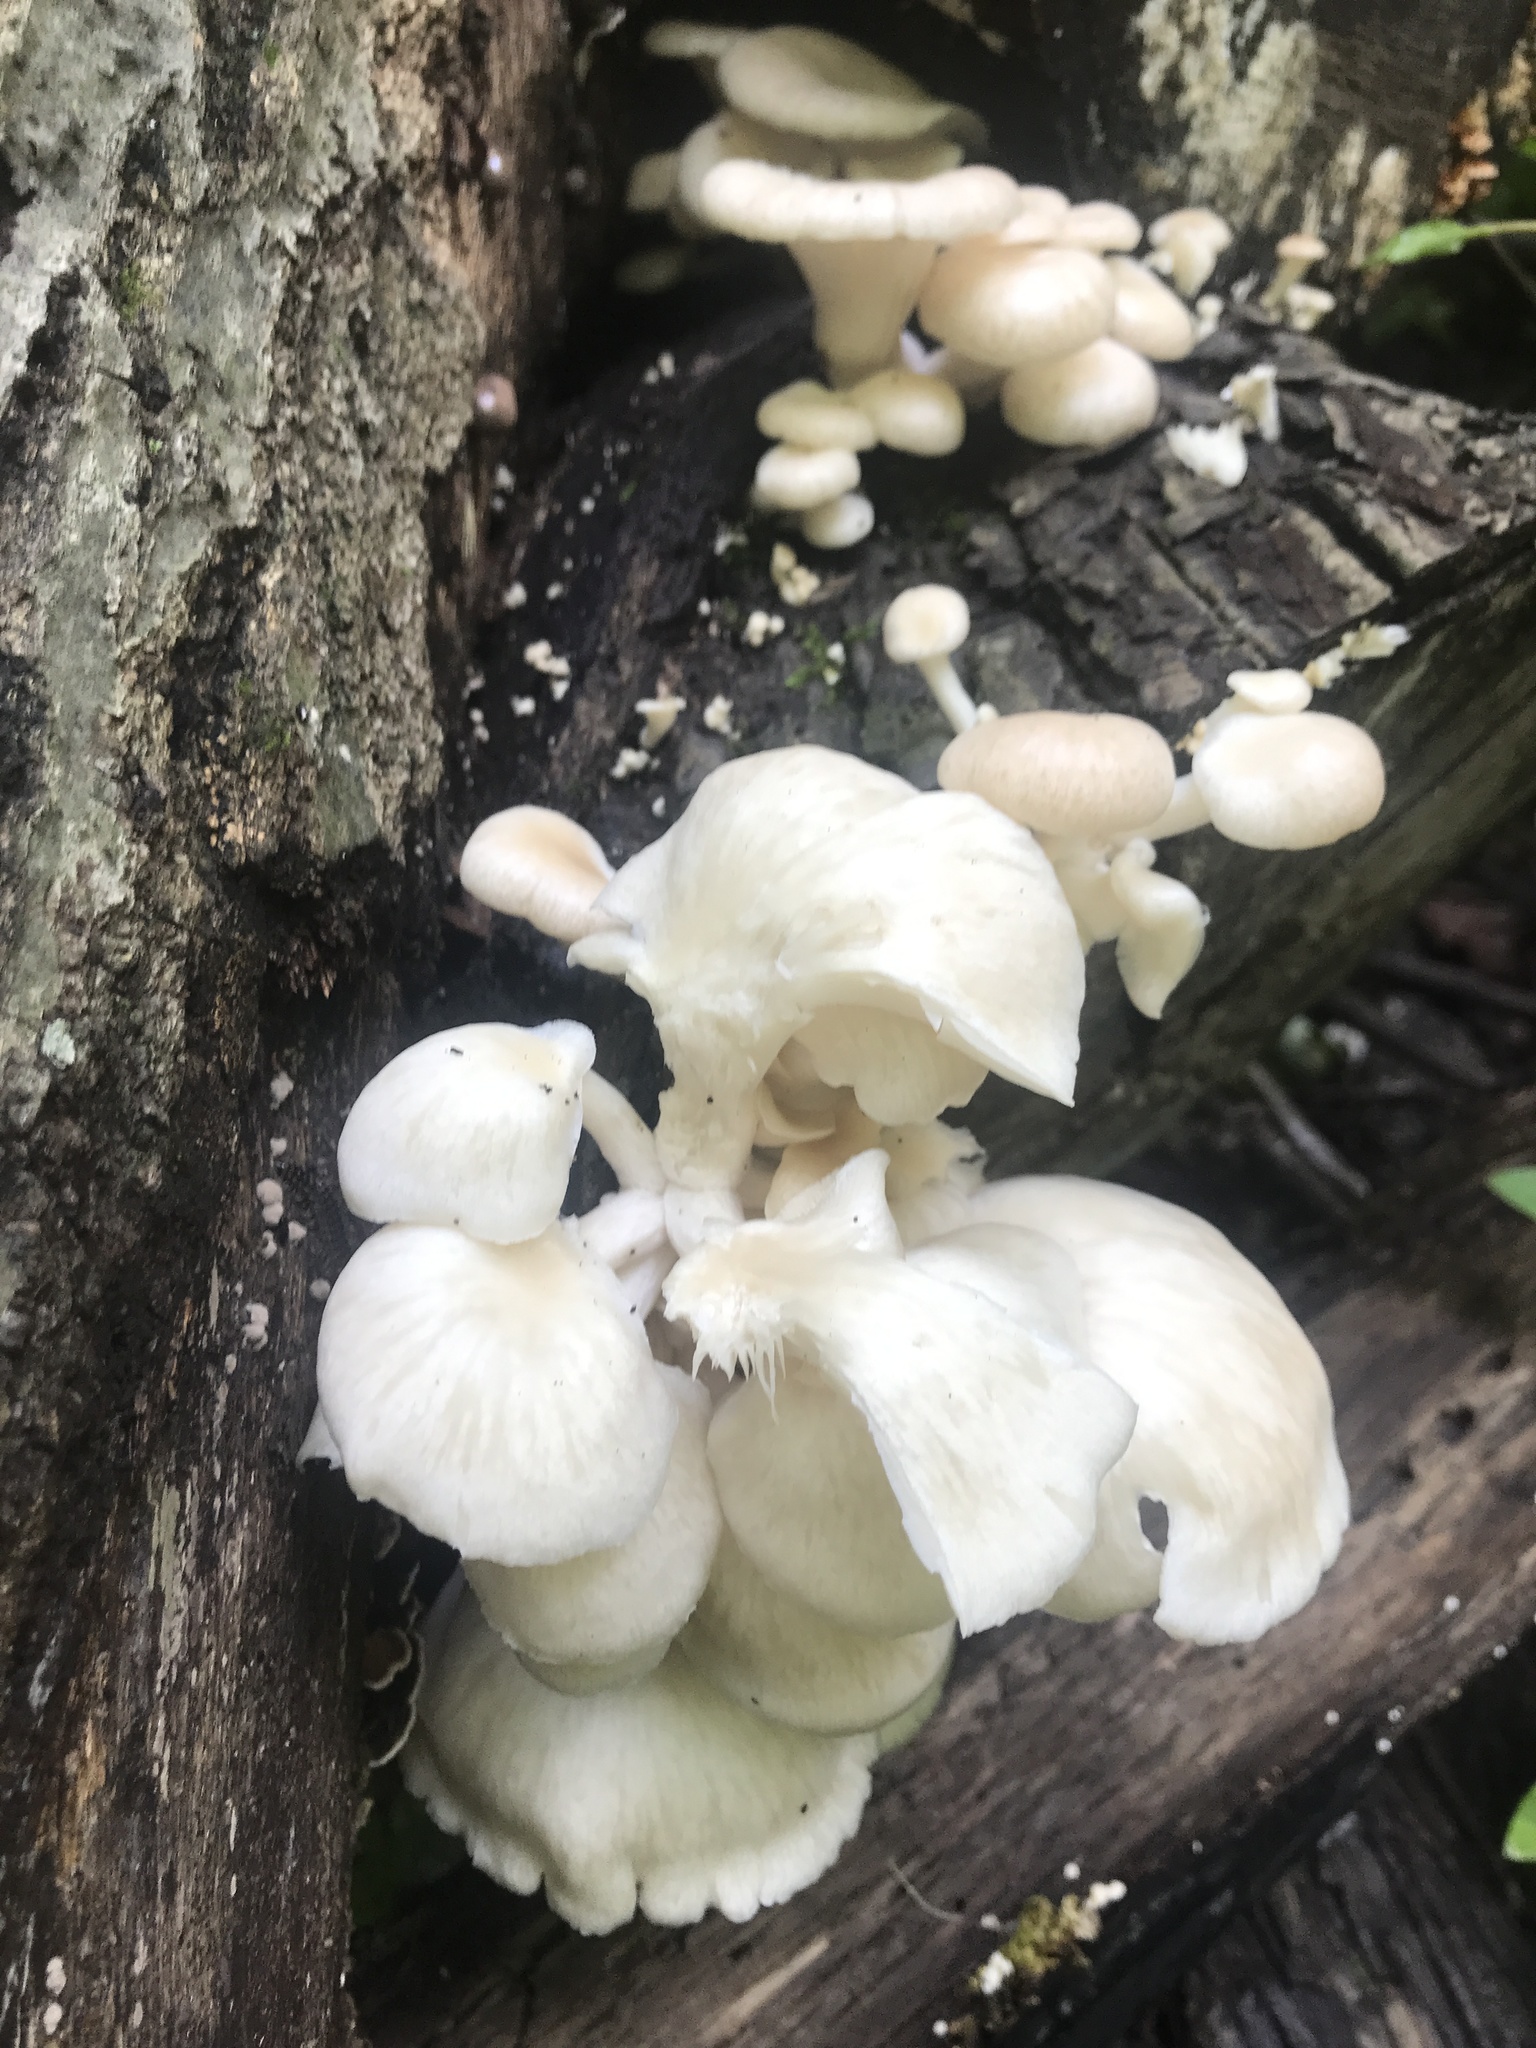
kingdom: Fungi
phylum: Basidiomycota
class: Agaricomycetes
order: Agaricales
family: Pleurotaceae
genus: Pleurotus
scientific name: Pleurotus pulmonarius
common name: Pale oyster
